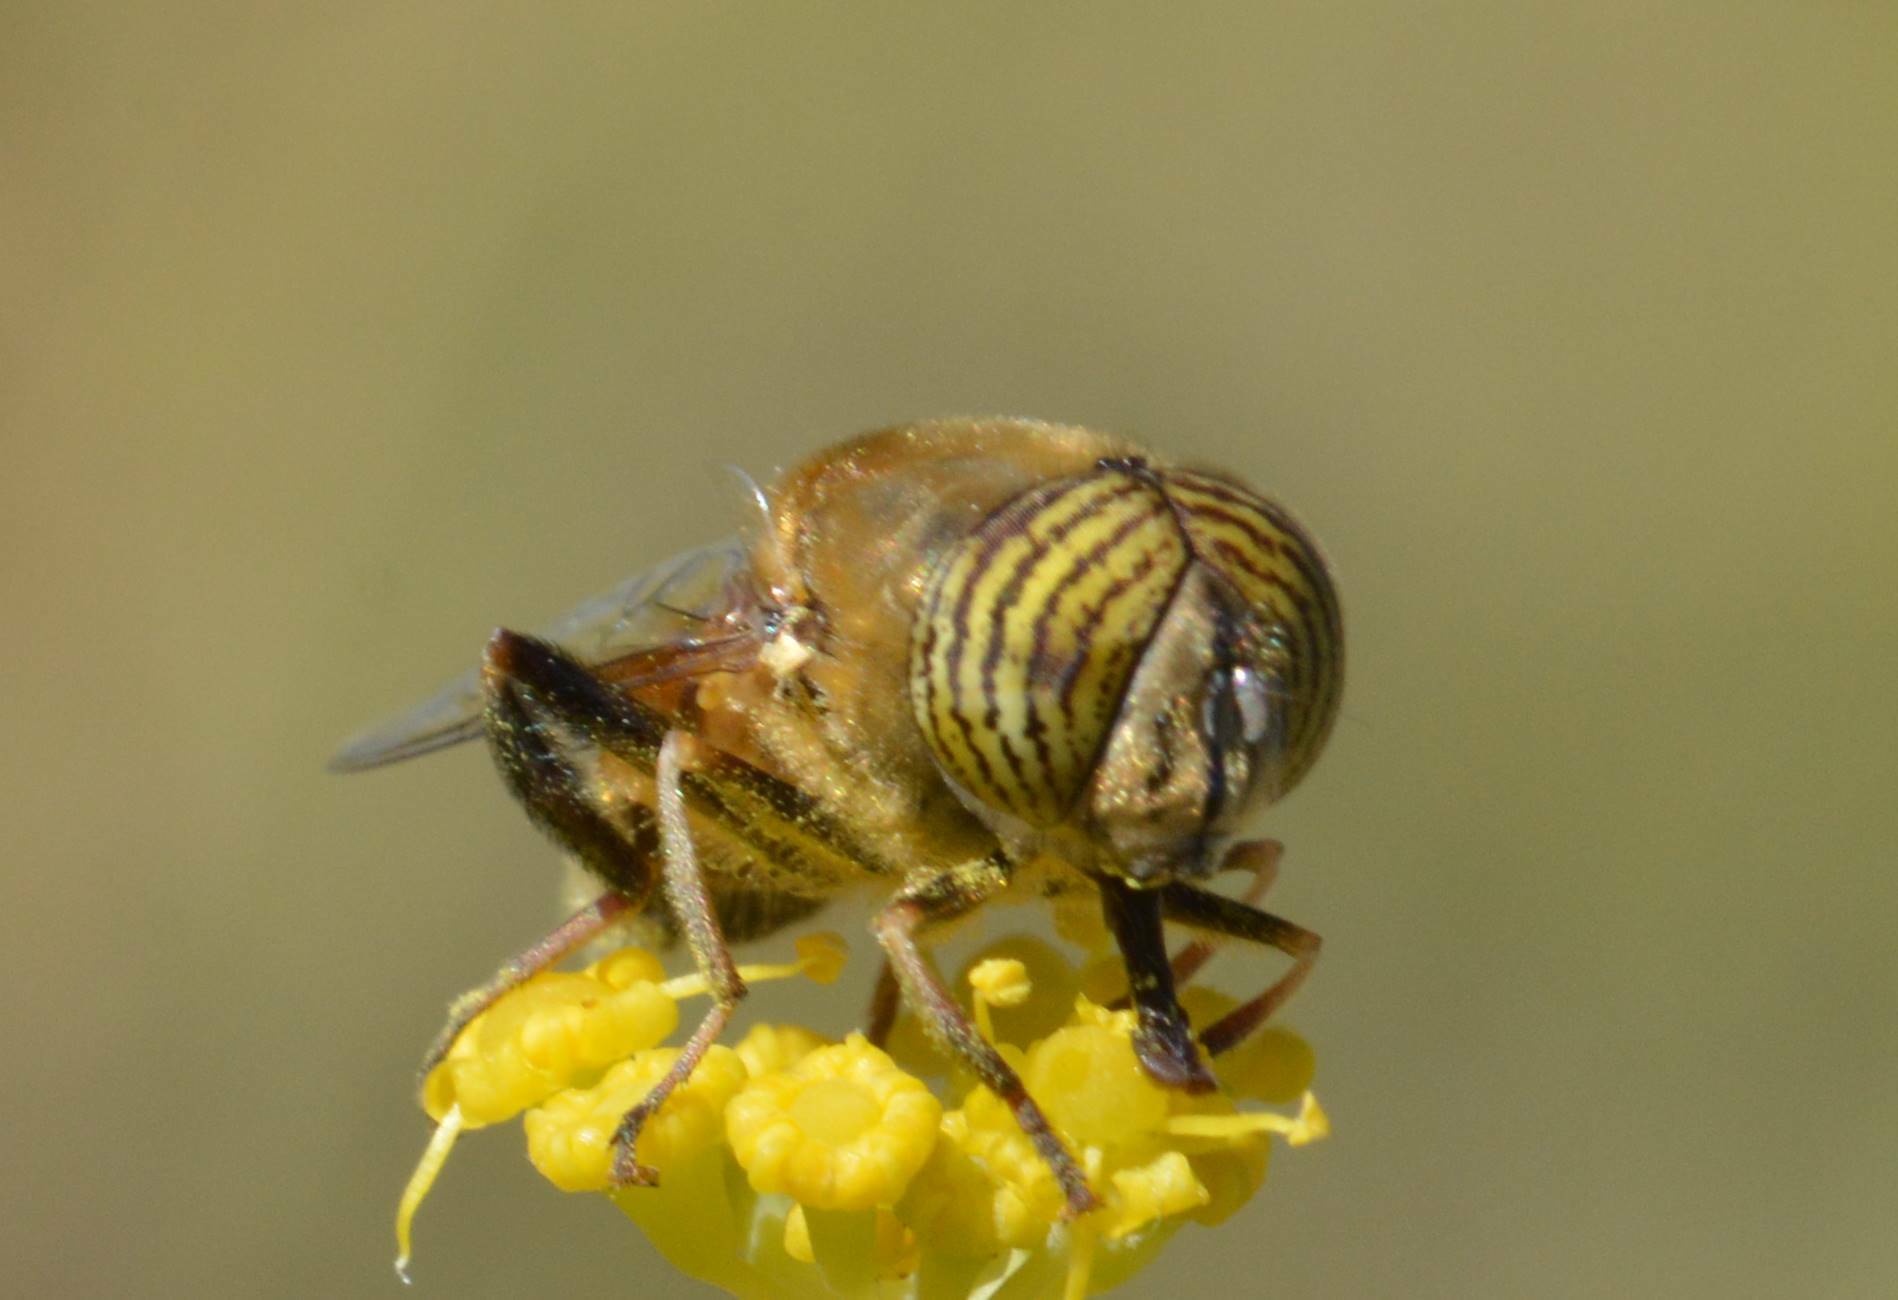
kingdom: Animalia
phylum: Arthropoda
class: Insecta
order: Diptera
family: Syrphidae
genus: Eristalinus
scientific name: Eristalinus taeniops
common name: Syrphid fly
